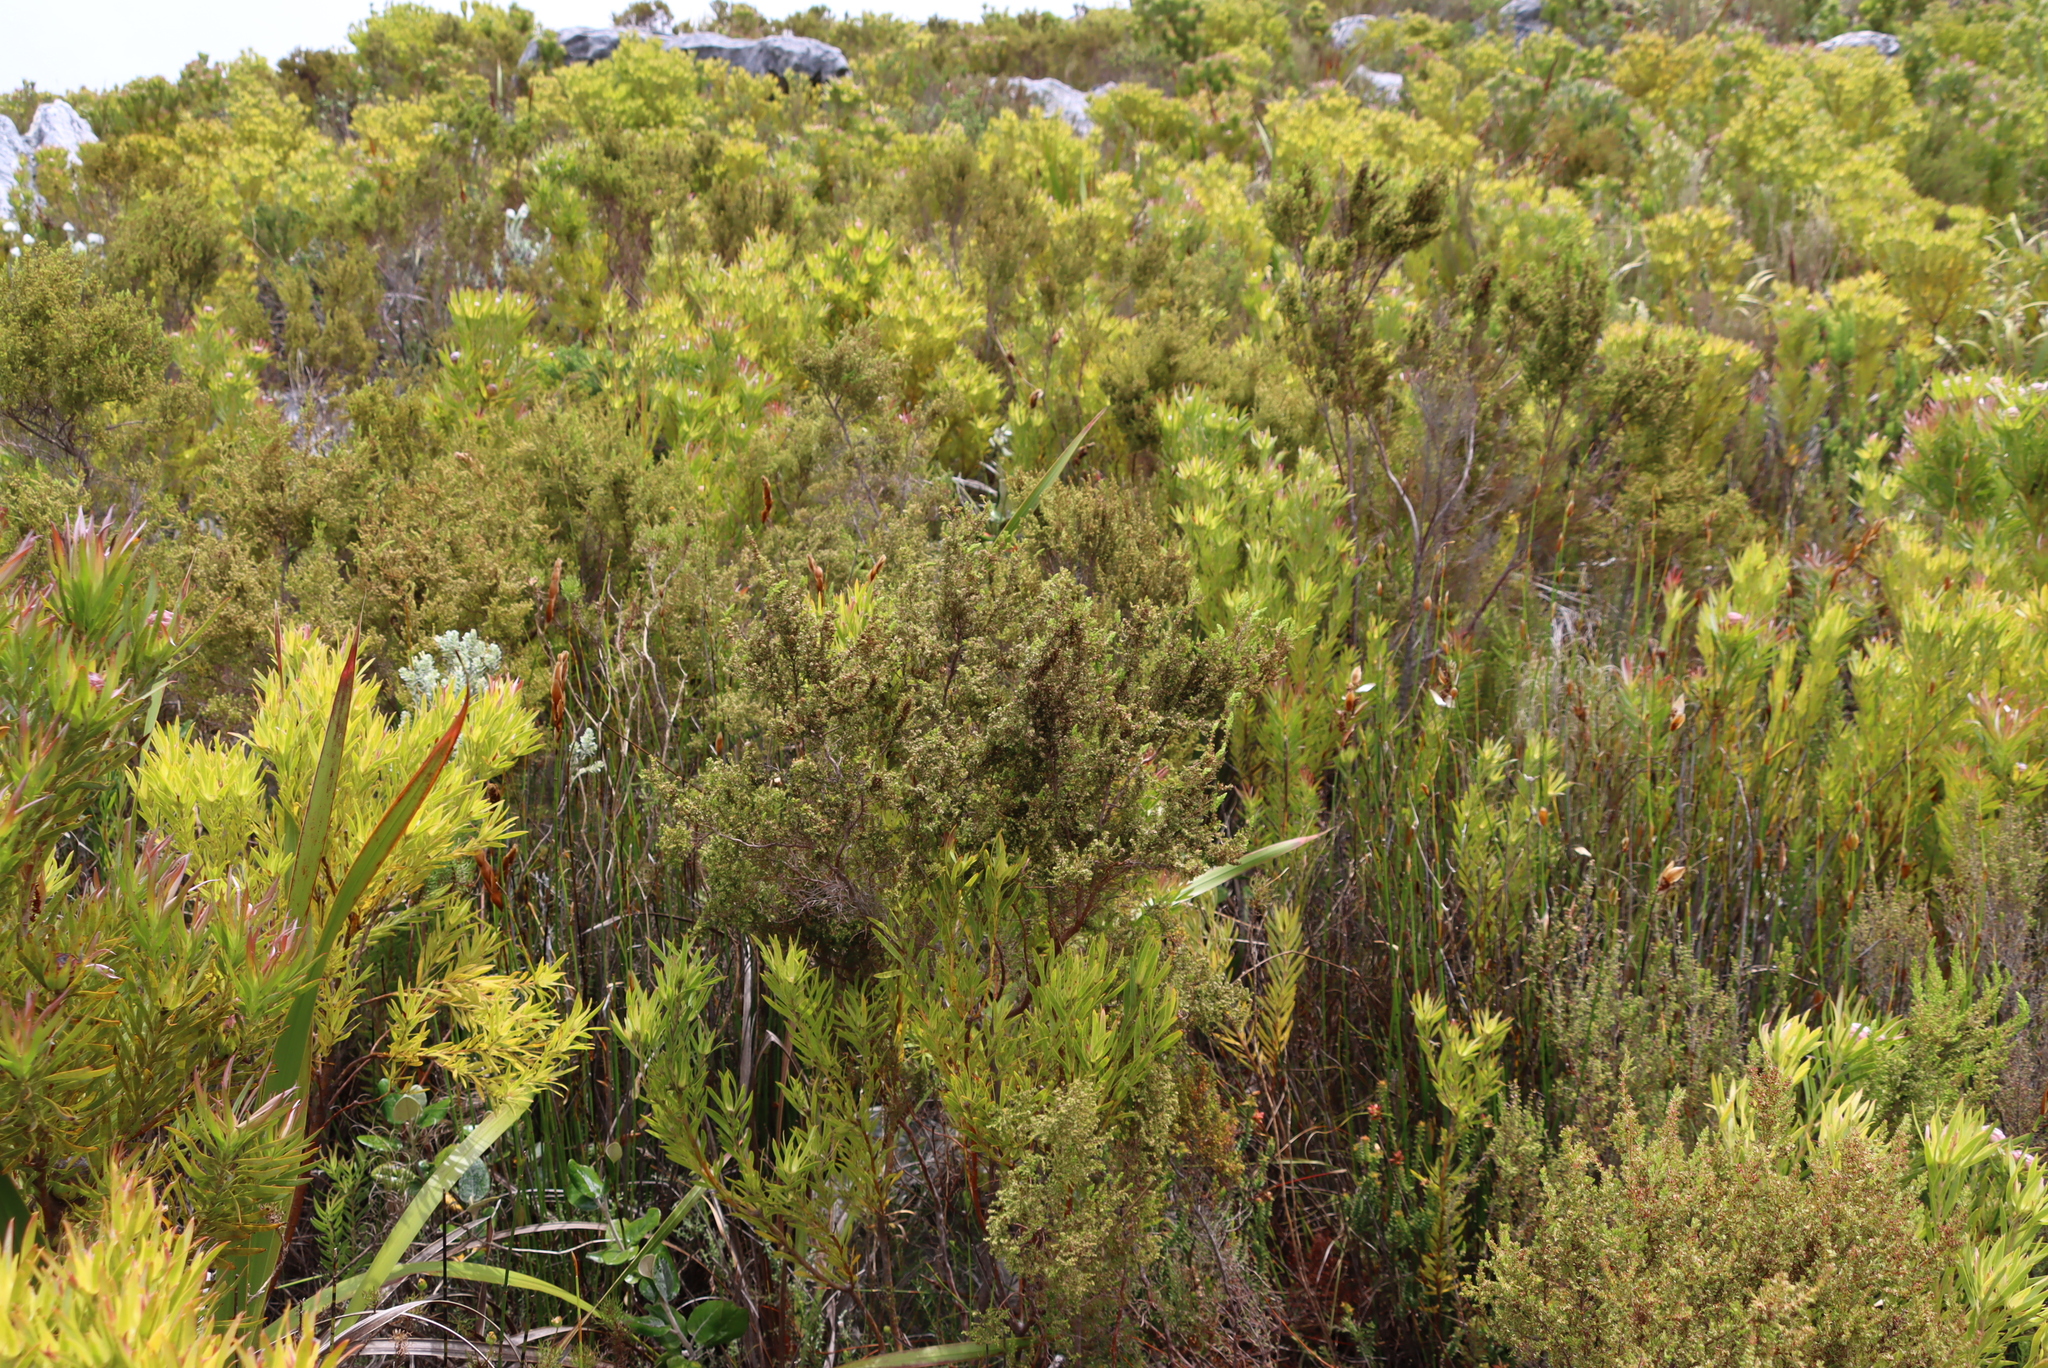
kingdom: Plantae
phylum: Tracheophyta
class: Magnoliopsida
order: Ericales
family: Ericaceae
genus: Erica
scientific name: Erica muscosa
